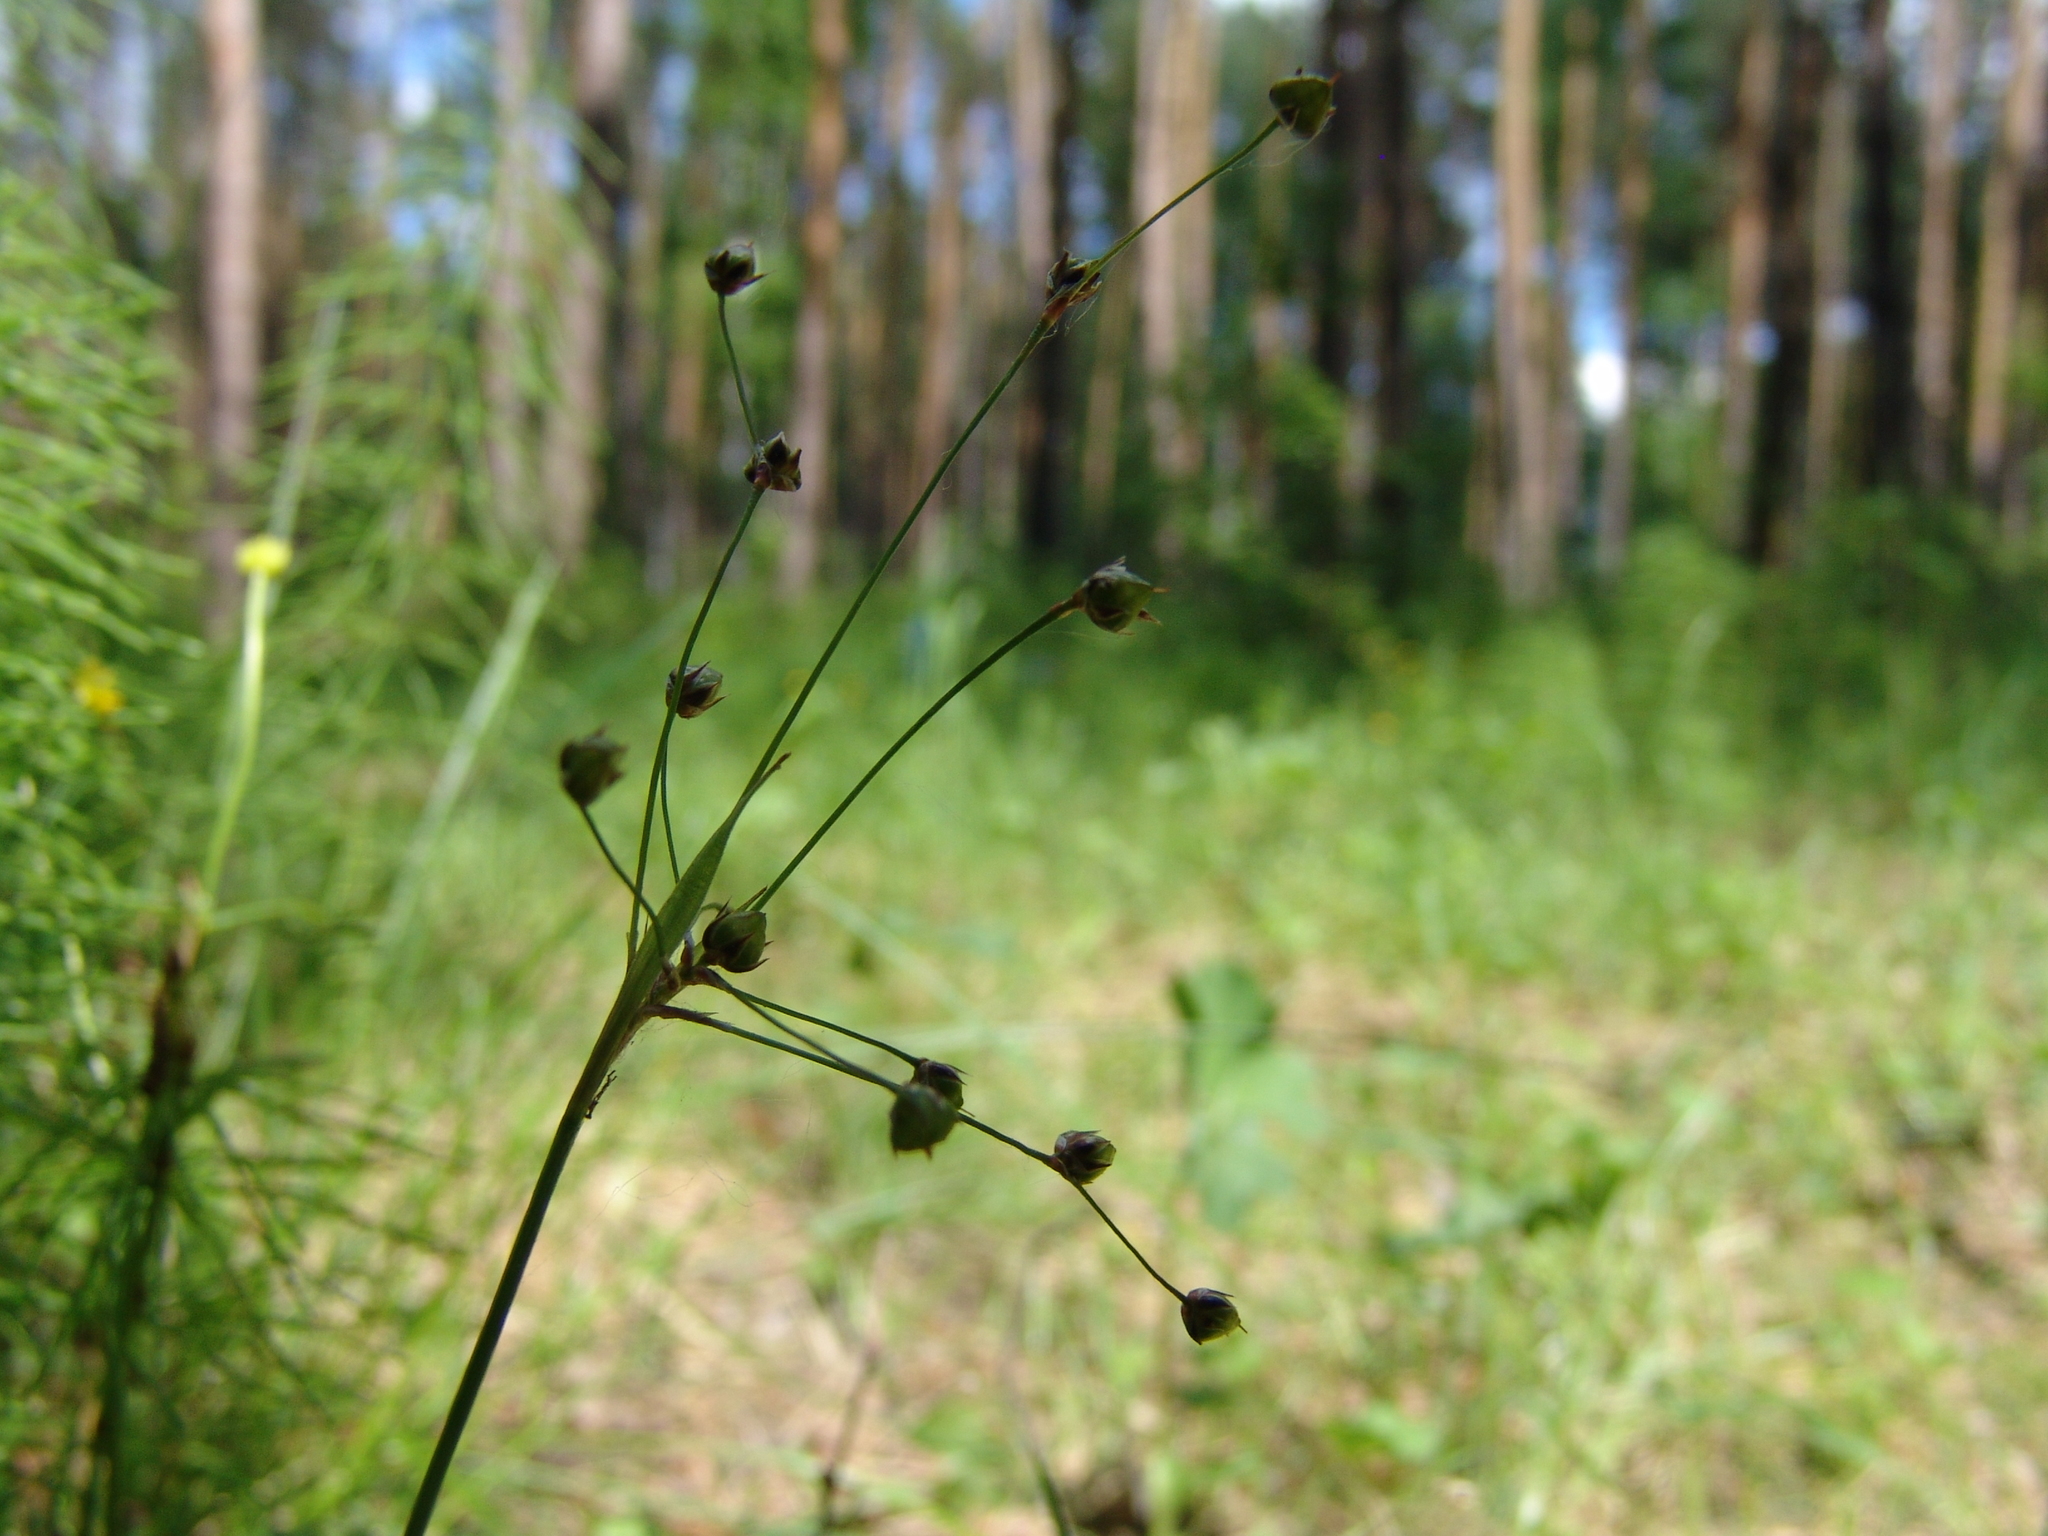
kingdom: Plantae
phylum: Tracheophyta
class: Liliopsida
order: Poales
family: Juncaceae
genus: Luzula
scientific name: Luzula pilosa
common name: Hairy wood-rush
